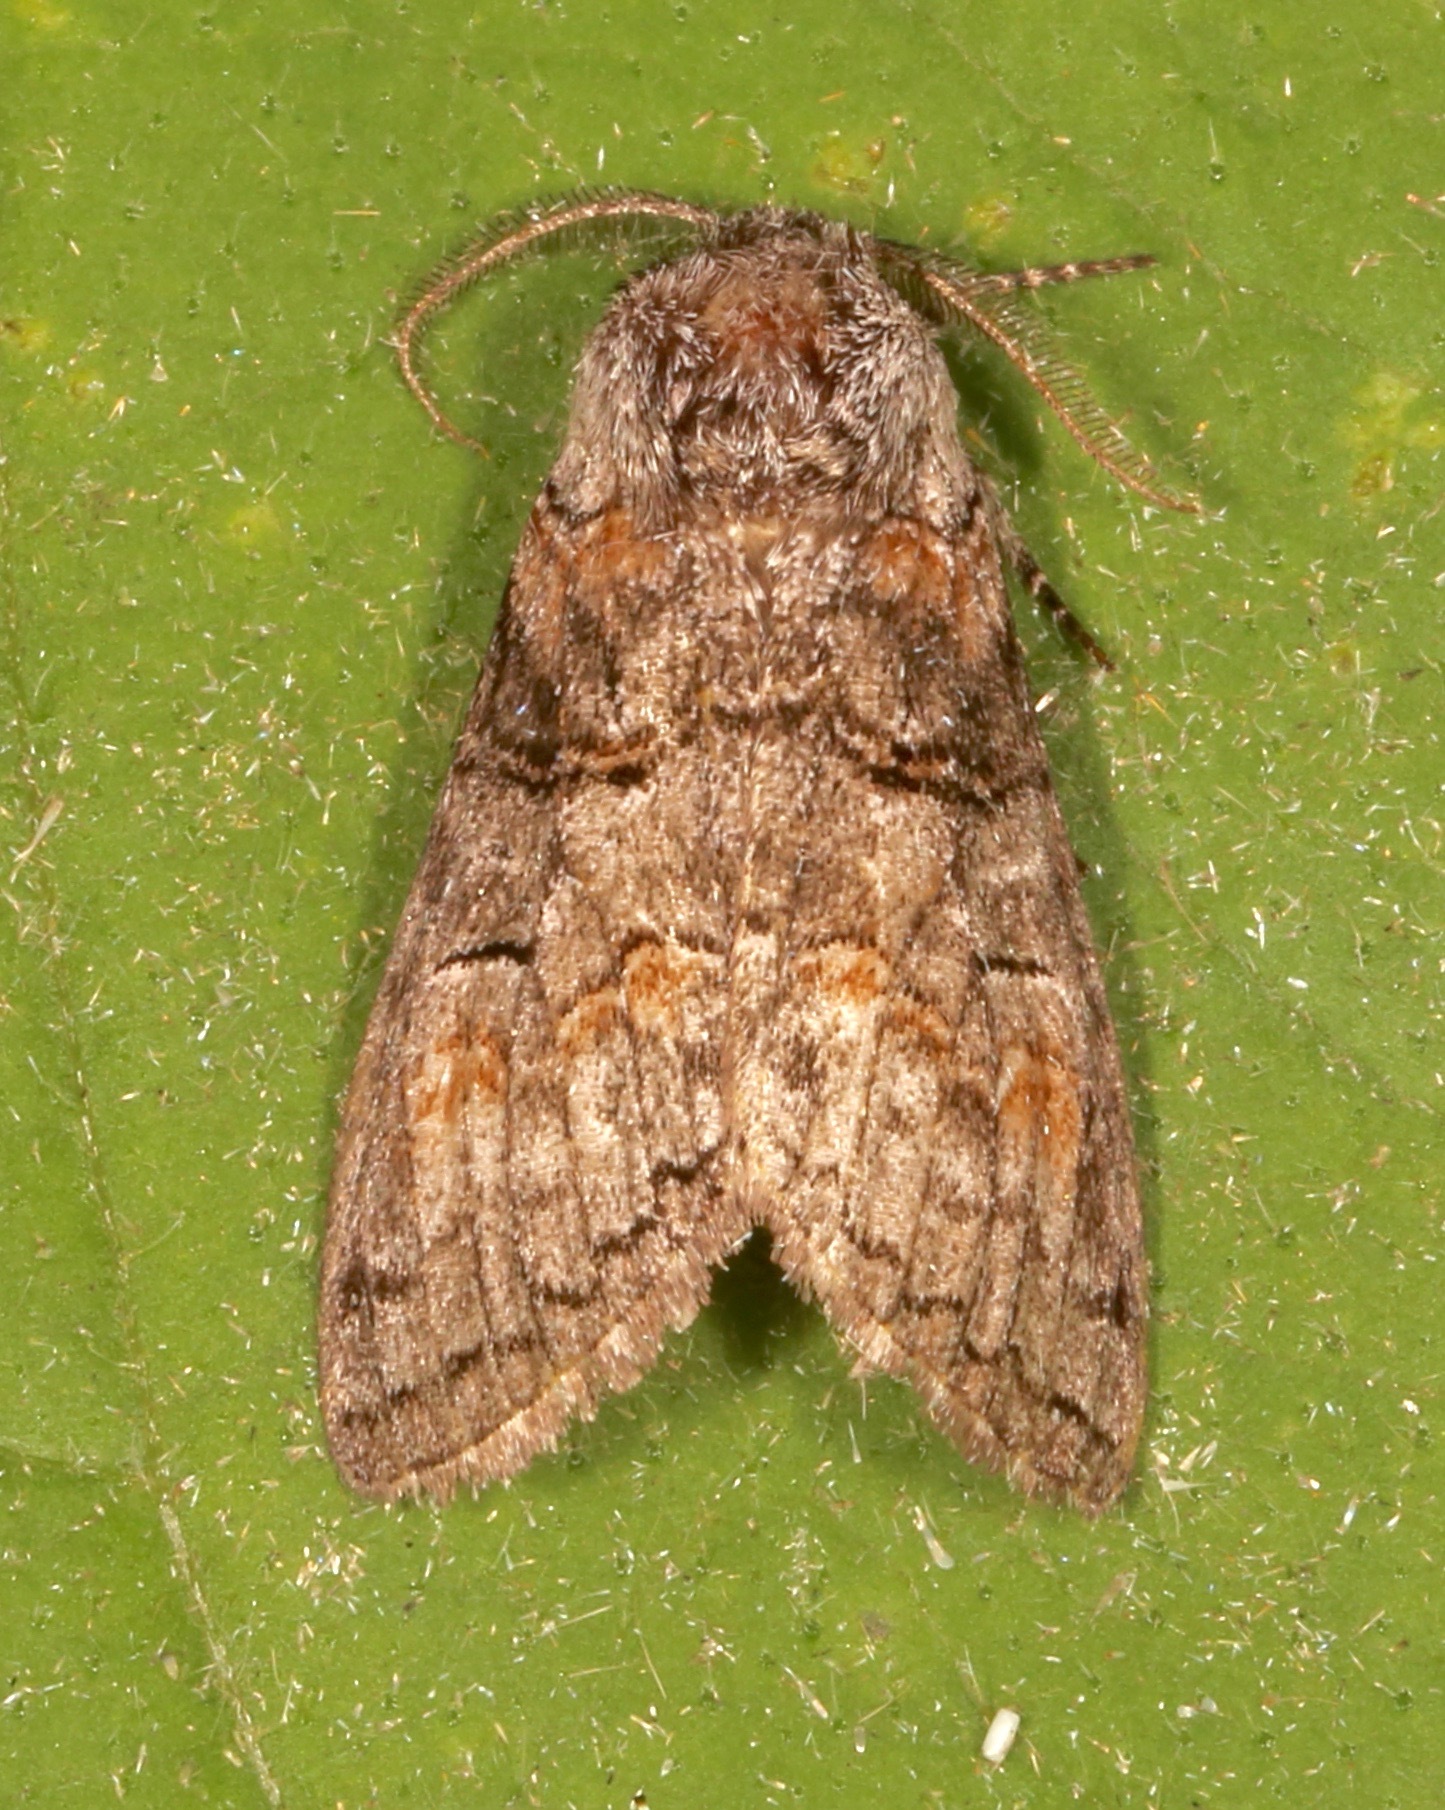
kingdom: Animalia
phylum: Arthropoda
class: Insecta
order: Lepidoptera
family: Notodontidae
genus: Afilia
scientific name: Afilia oslari
